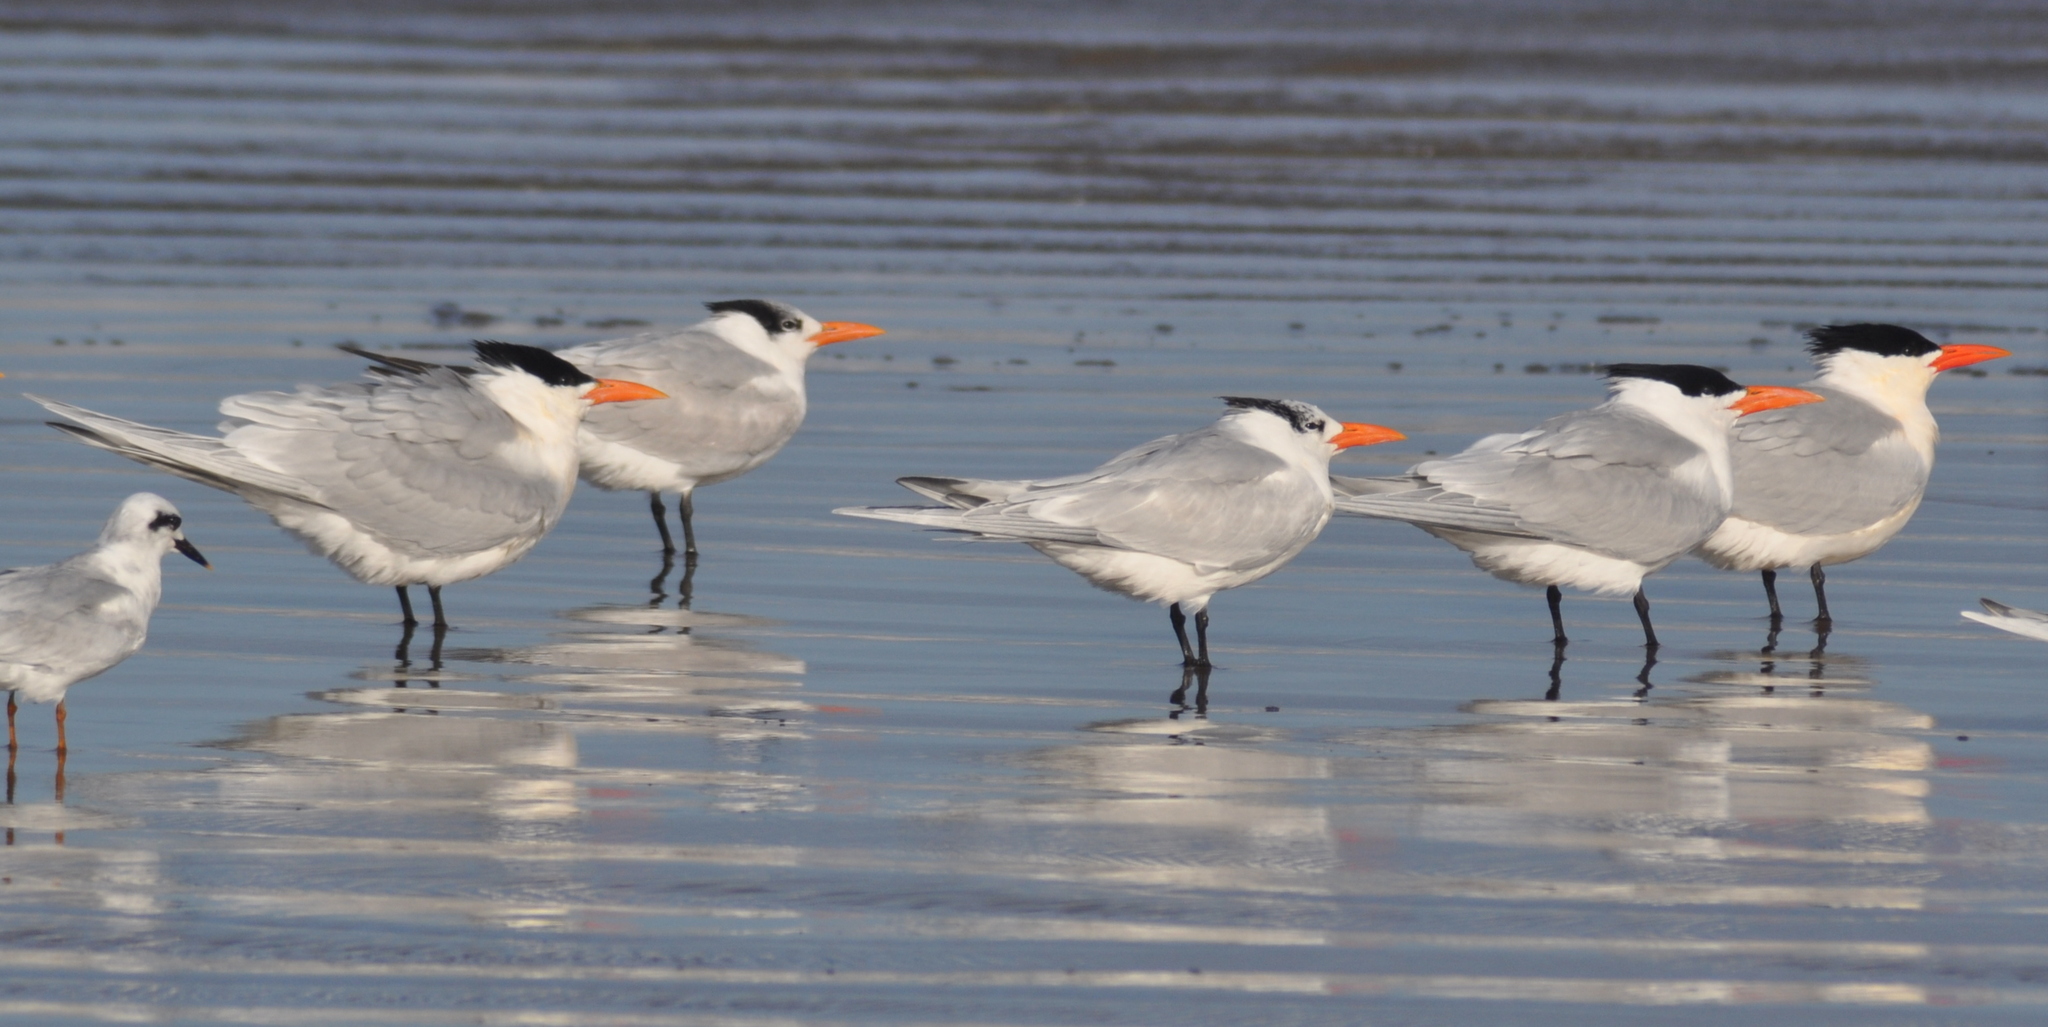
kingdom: Animalia
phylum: Chordata
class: Aves
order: Charadriiformes
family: Laridae
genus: Thalasseus
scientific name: Thalasseus maximus
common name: Royal tern
